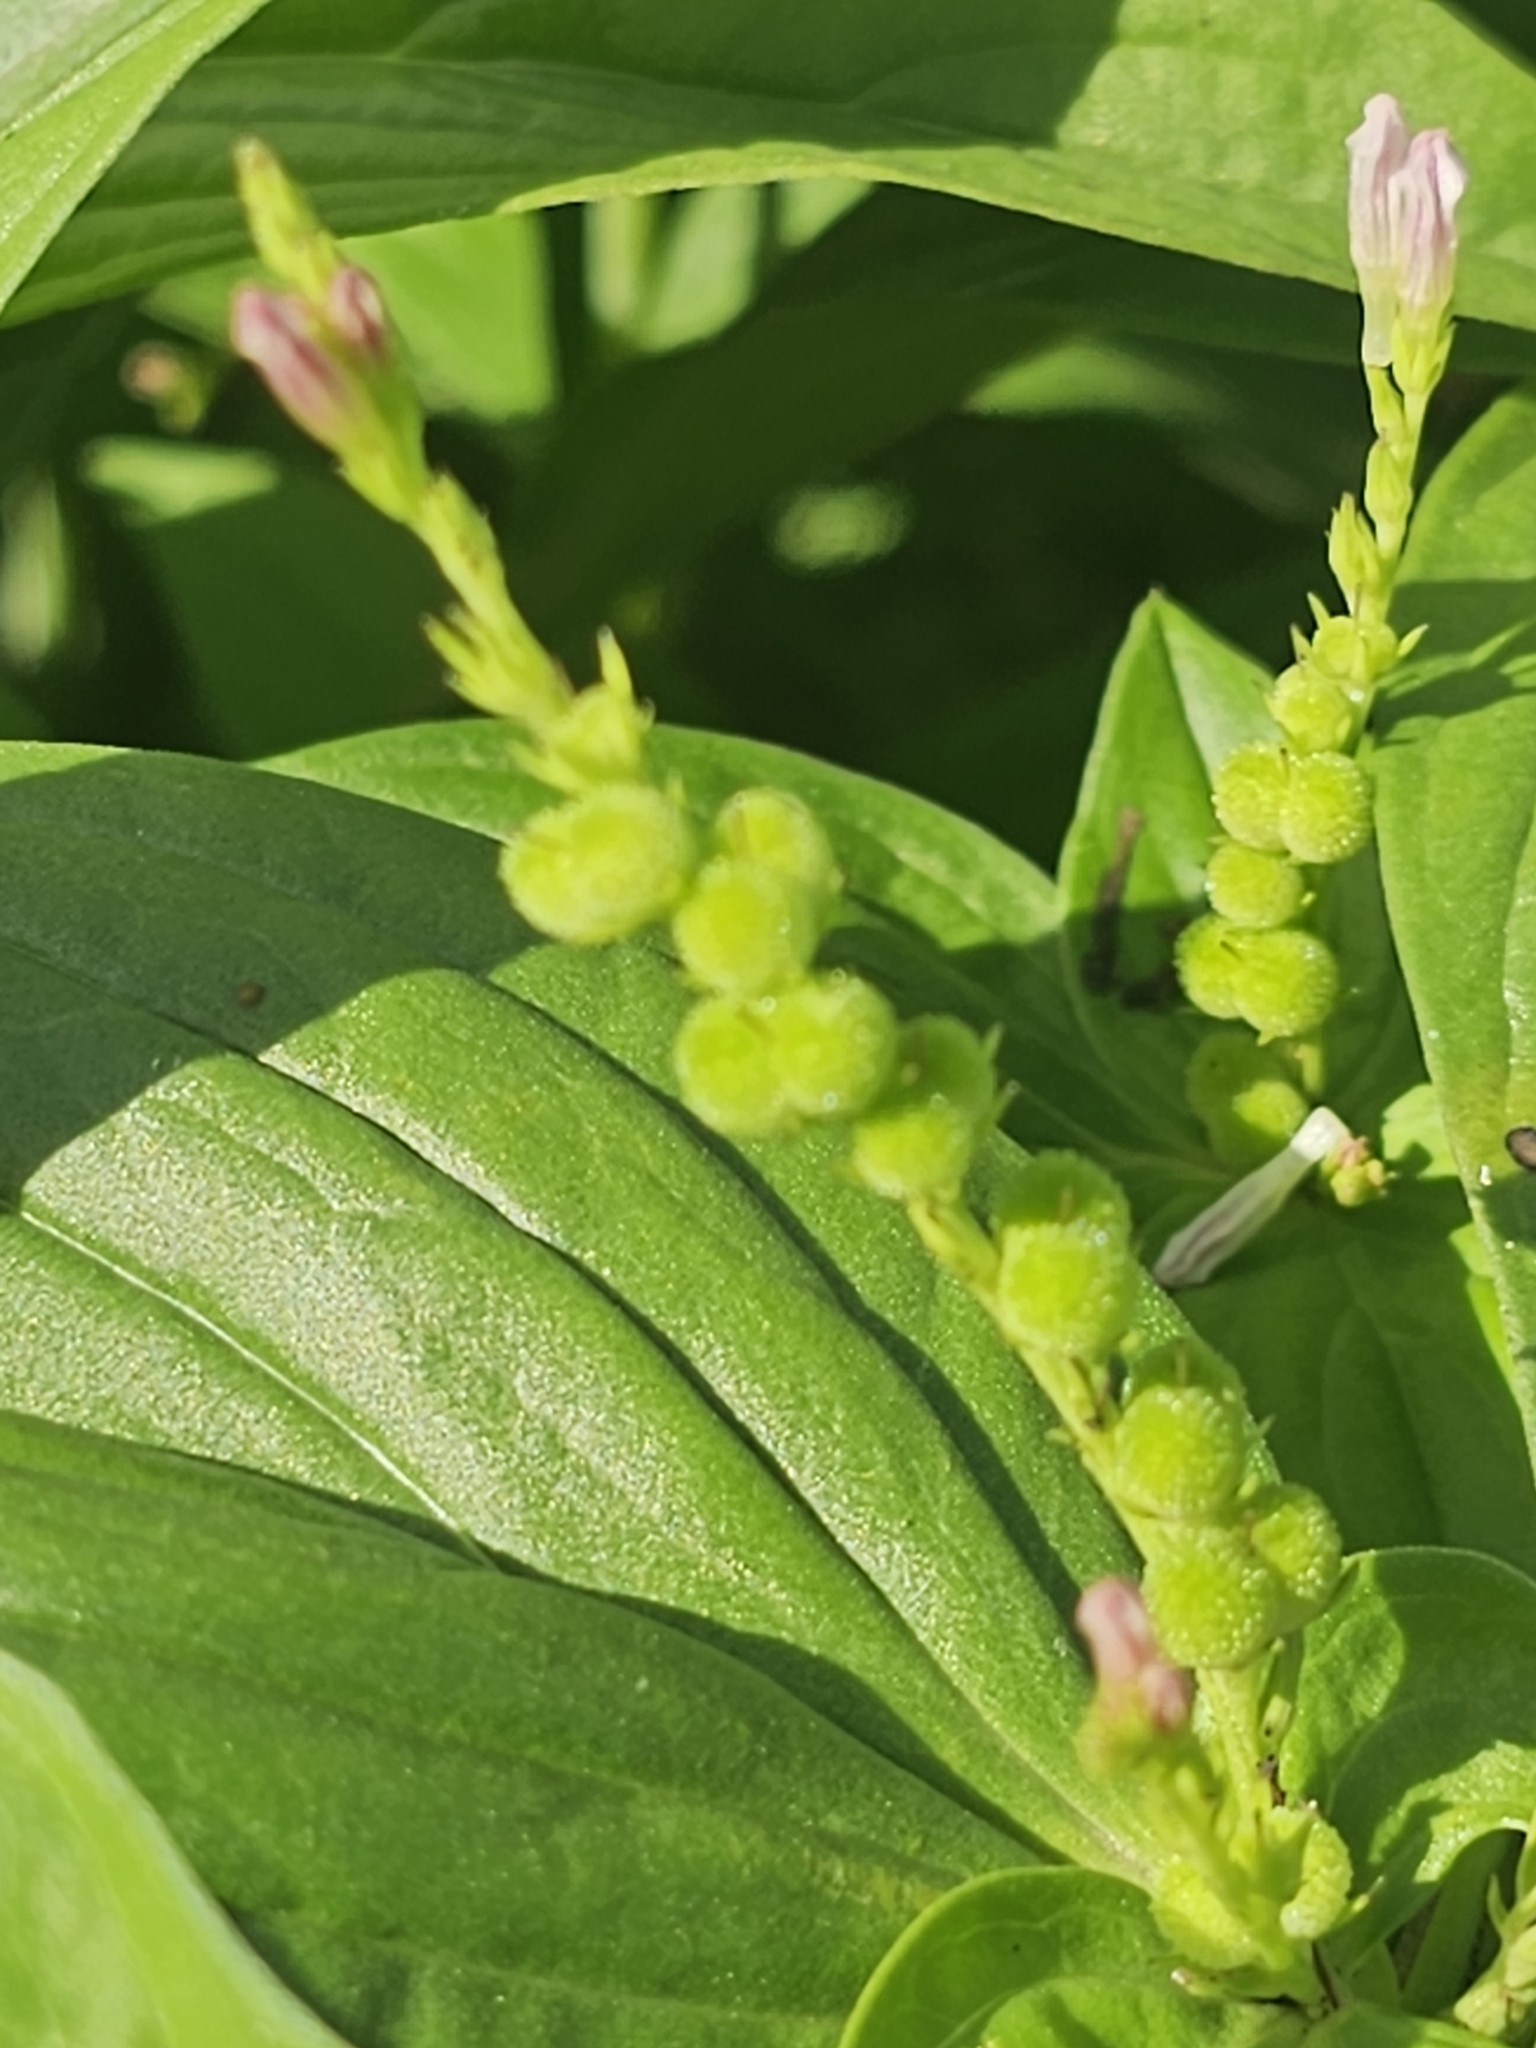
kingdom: Plantae
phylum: Tracheophyta
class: Magnoliopsida
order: Gentianales
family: Loganiaceae
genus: Spigelia
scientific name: Spigelia anthelmia
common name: West indian-pink
